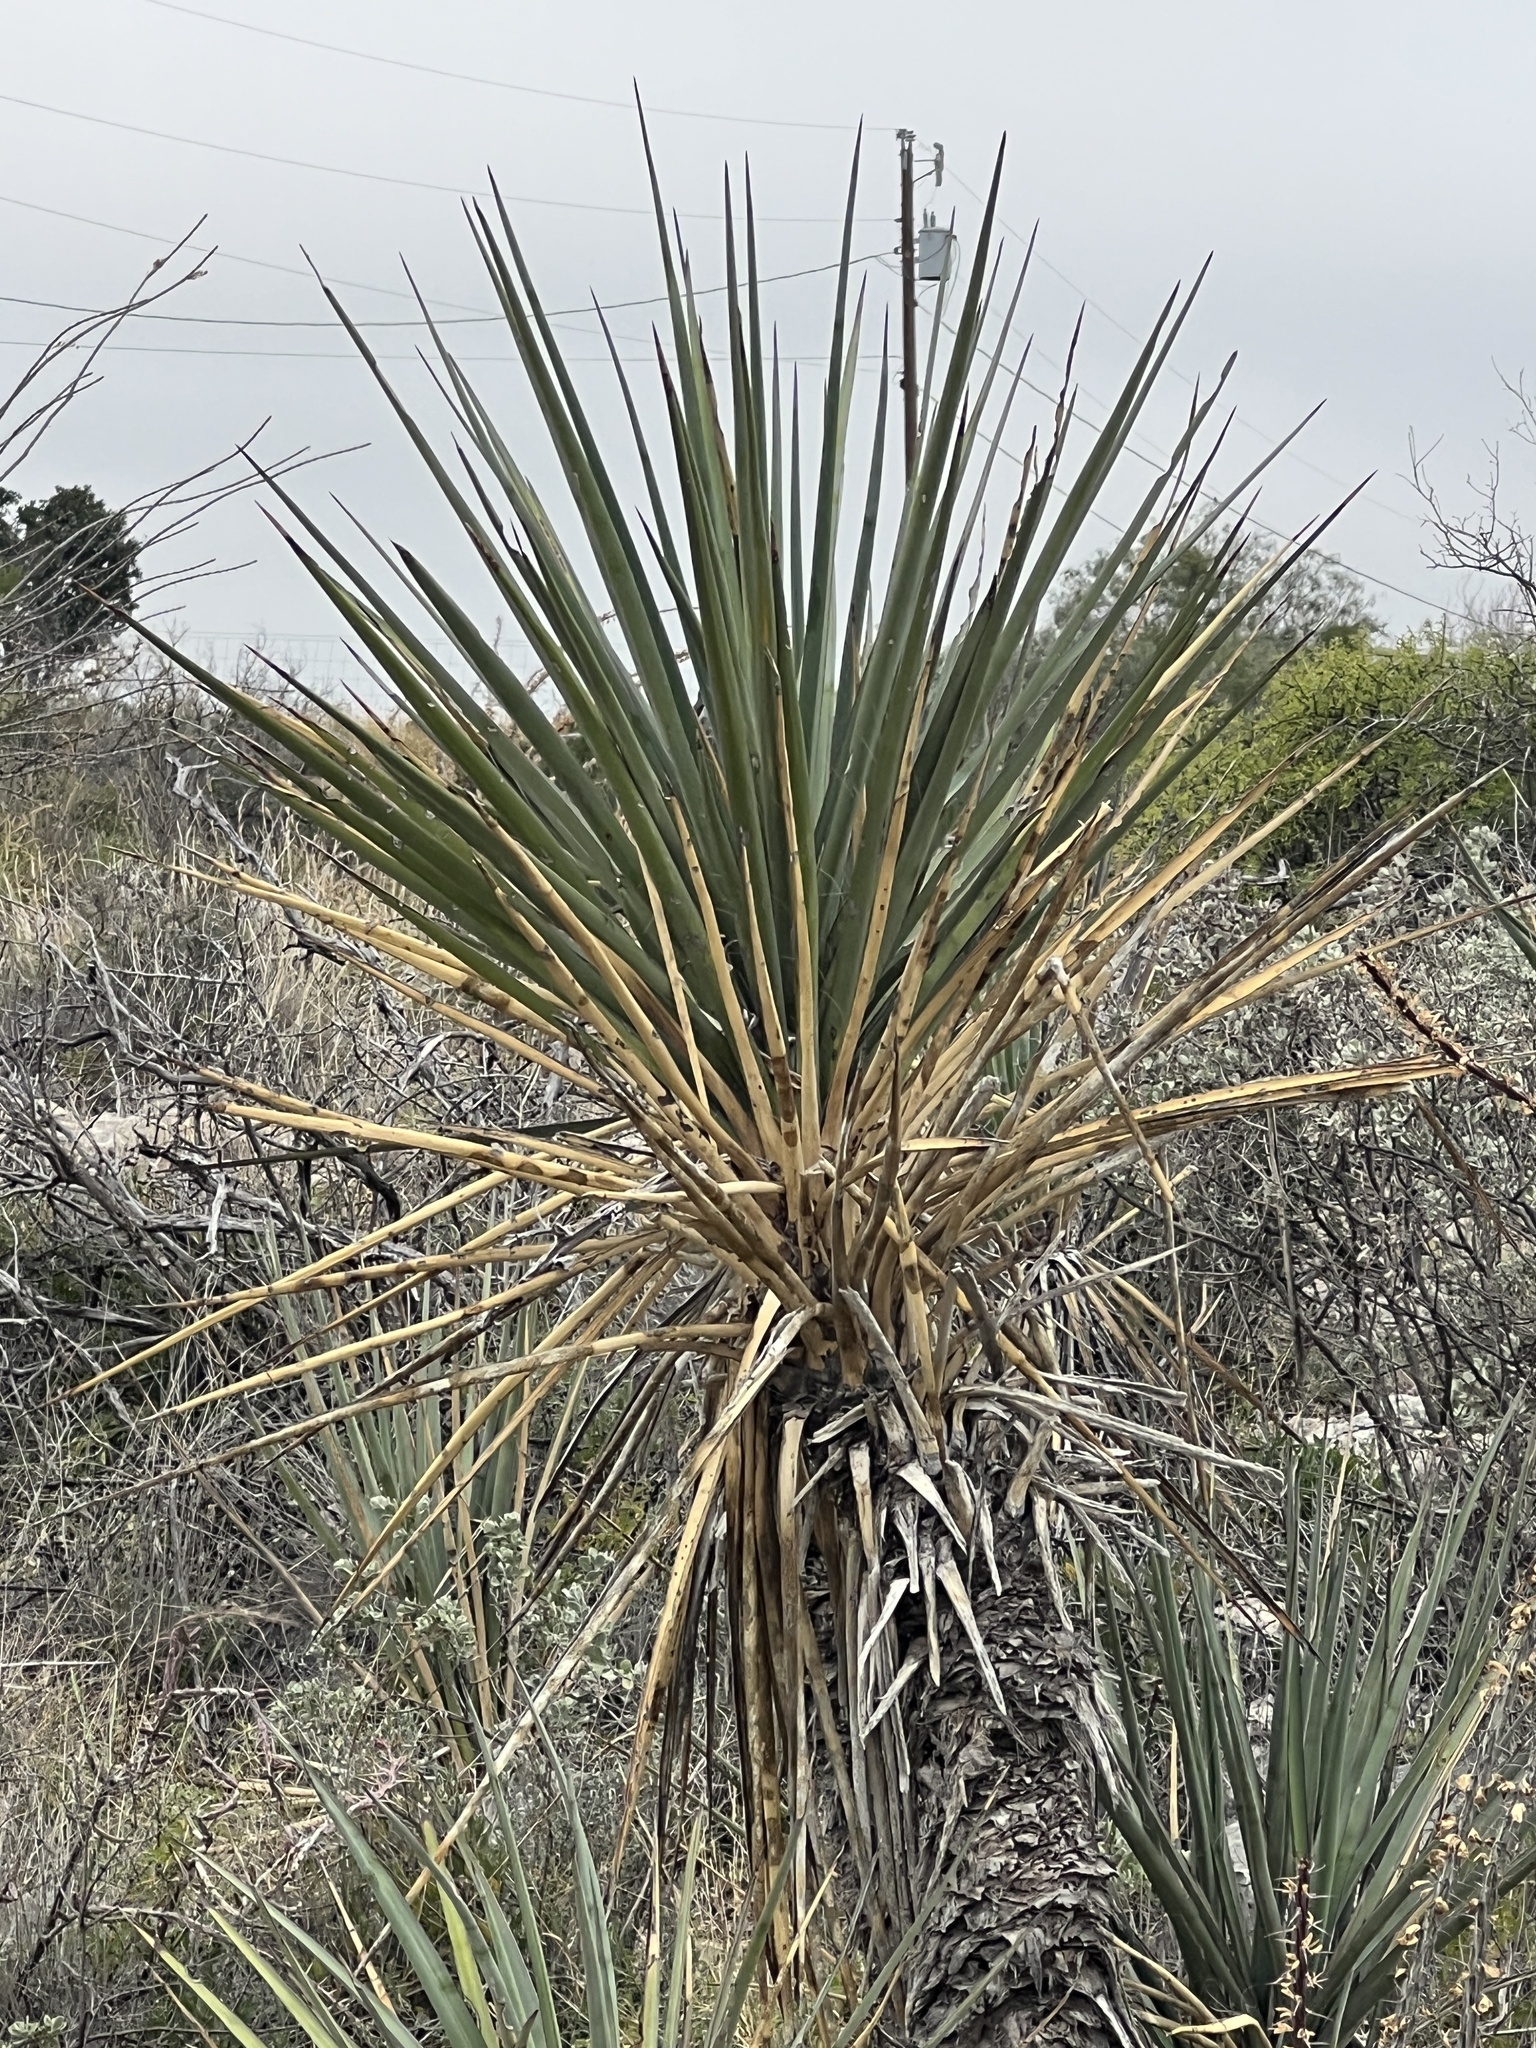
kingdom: Plantae
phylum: Tracheophyta
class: Liliopsida
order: Asparagales
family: Asparagaceae
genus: Yucca
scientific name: Yucca treculiana
